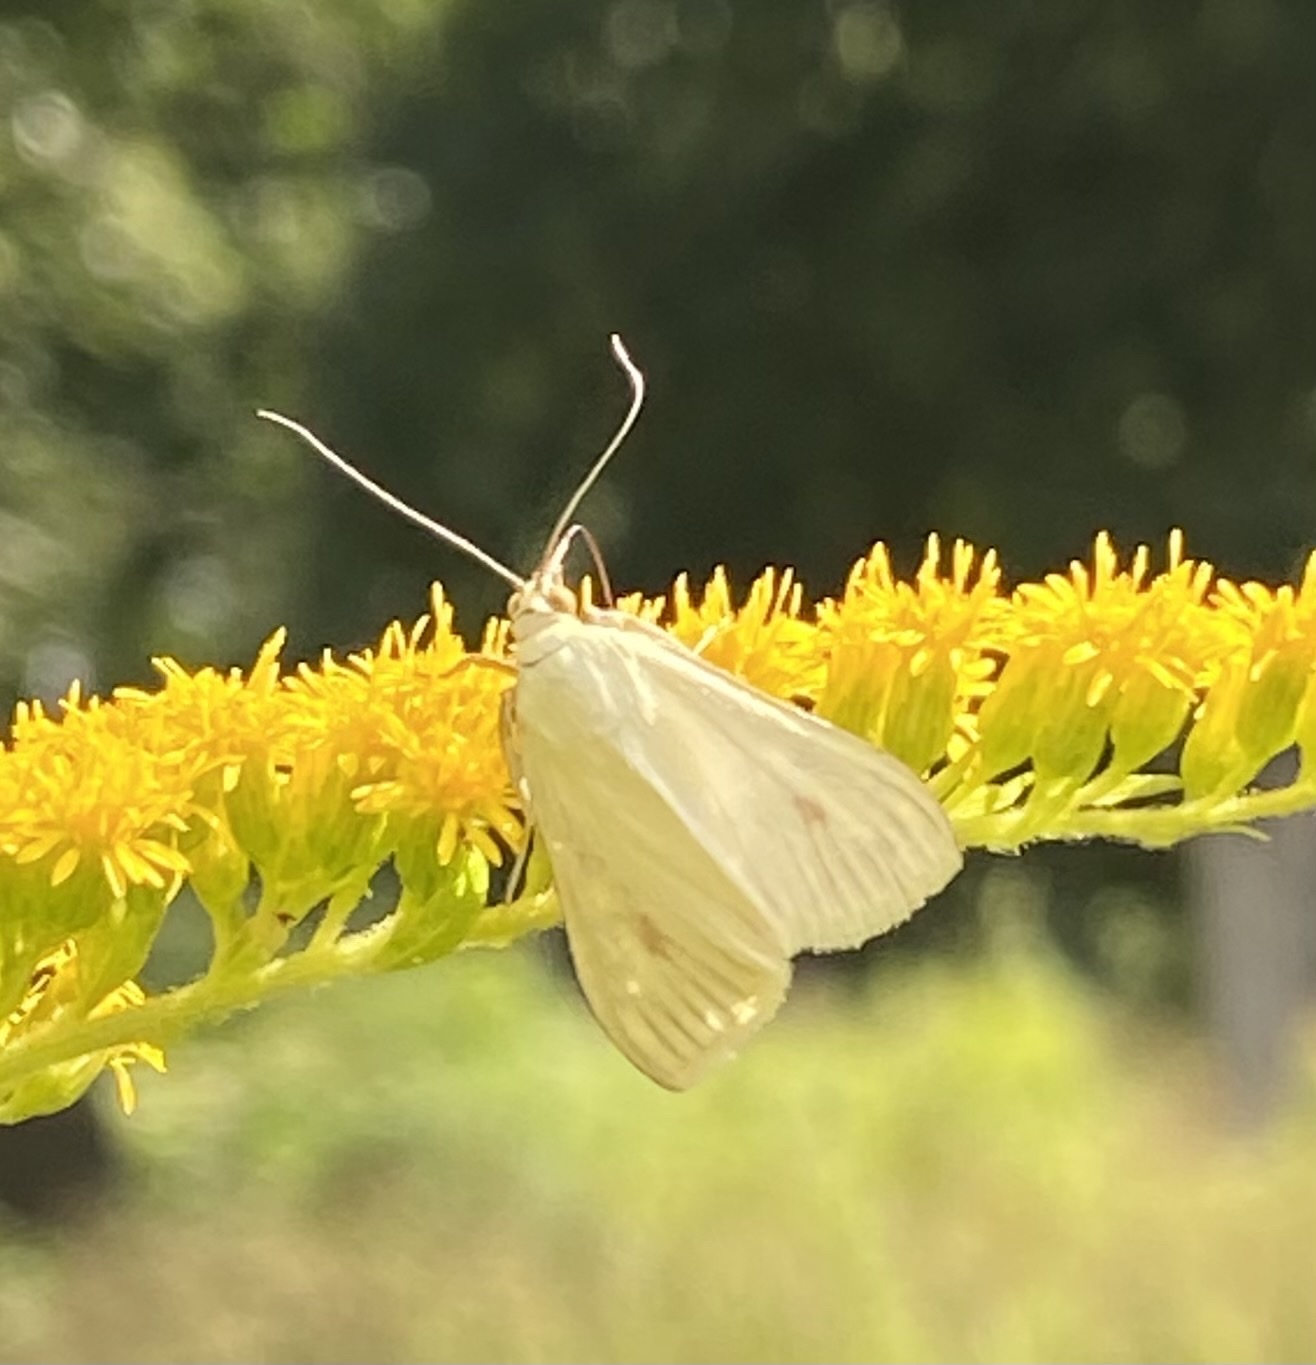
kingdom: Animalia
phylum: Arthropoda
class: Insecta
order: Lepidoptera
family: Crambidae
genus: Sitochroa
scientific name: Sitochroa palealis
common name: Greenish-yellow sitochroa moth
